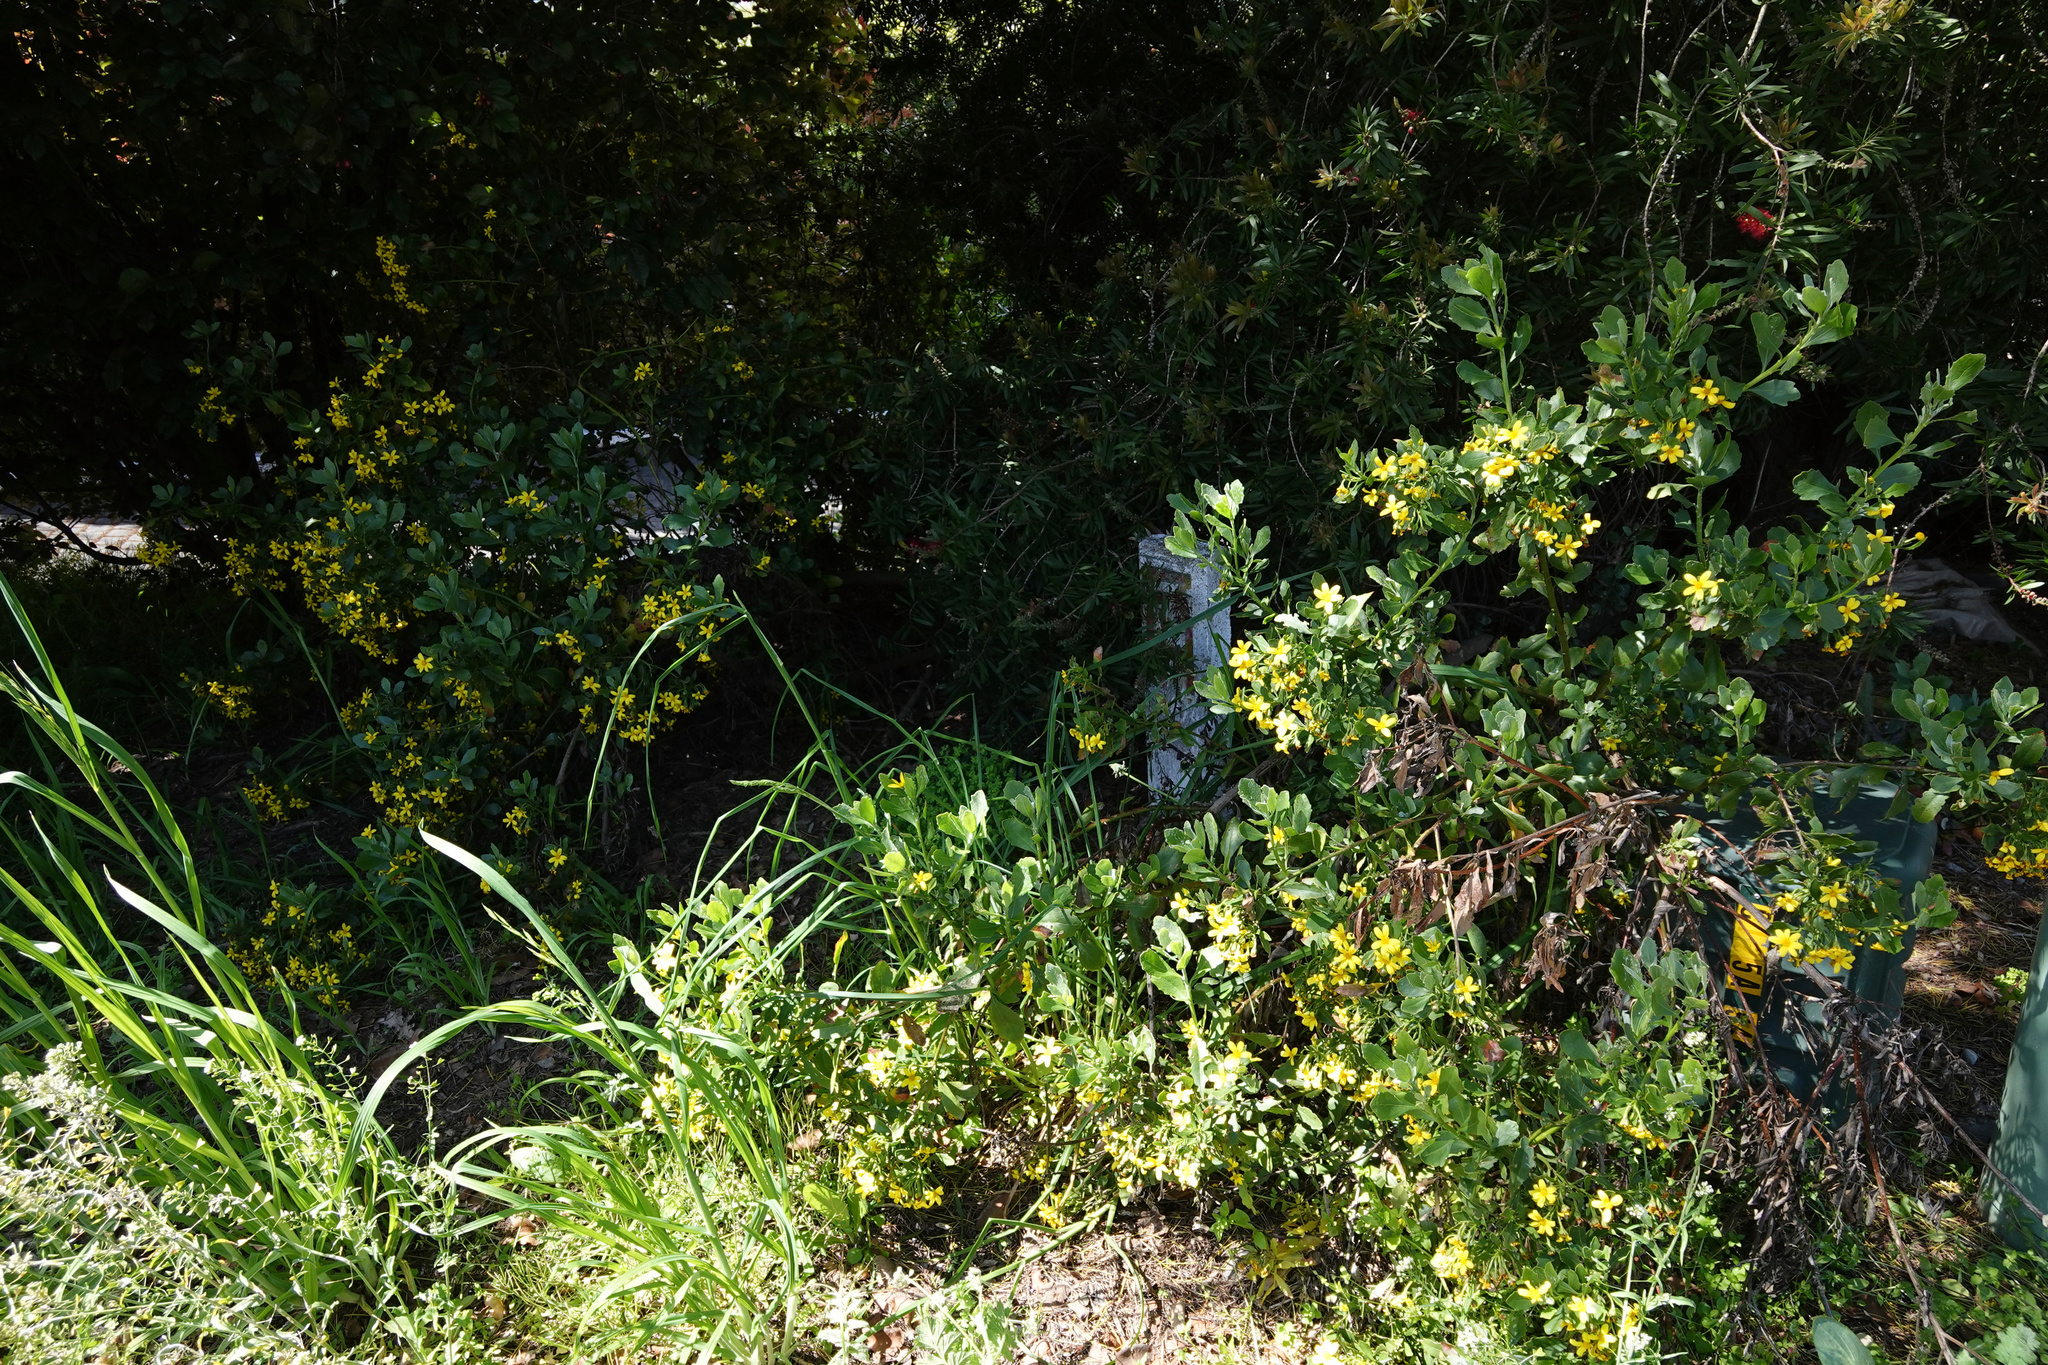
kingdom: Plantae
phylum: Tracheophyta
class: Magnoliopsida
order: Asterales
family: Asteraceae
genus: Osteospermum
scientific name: Osteospermum moniliferum
